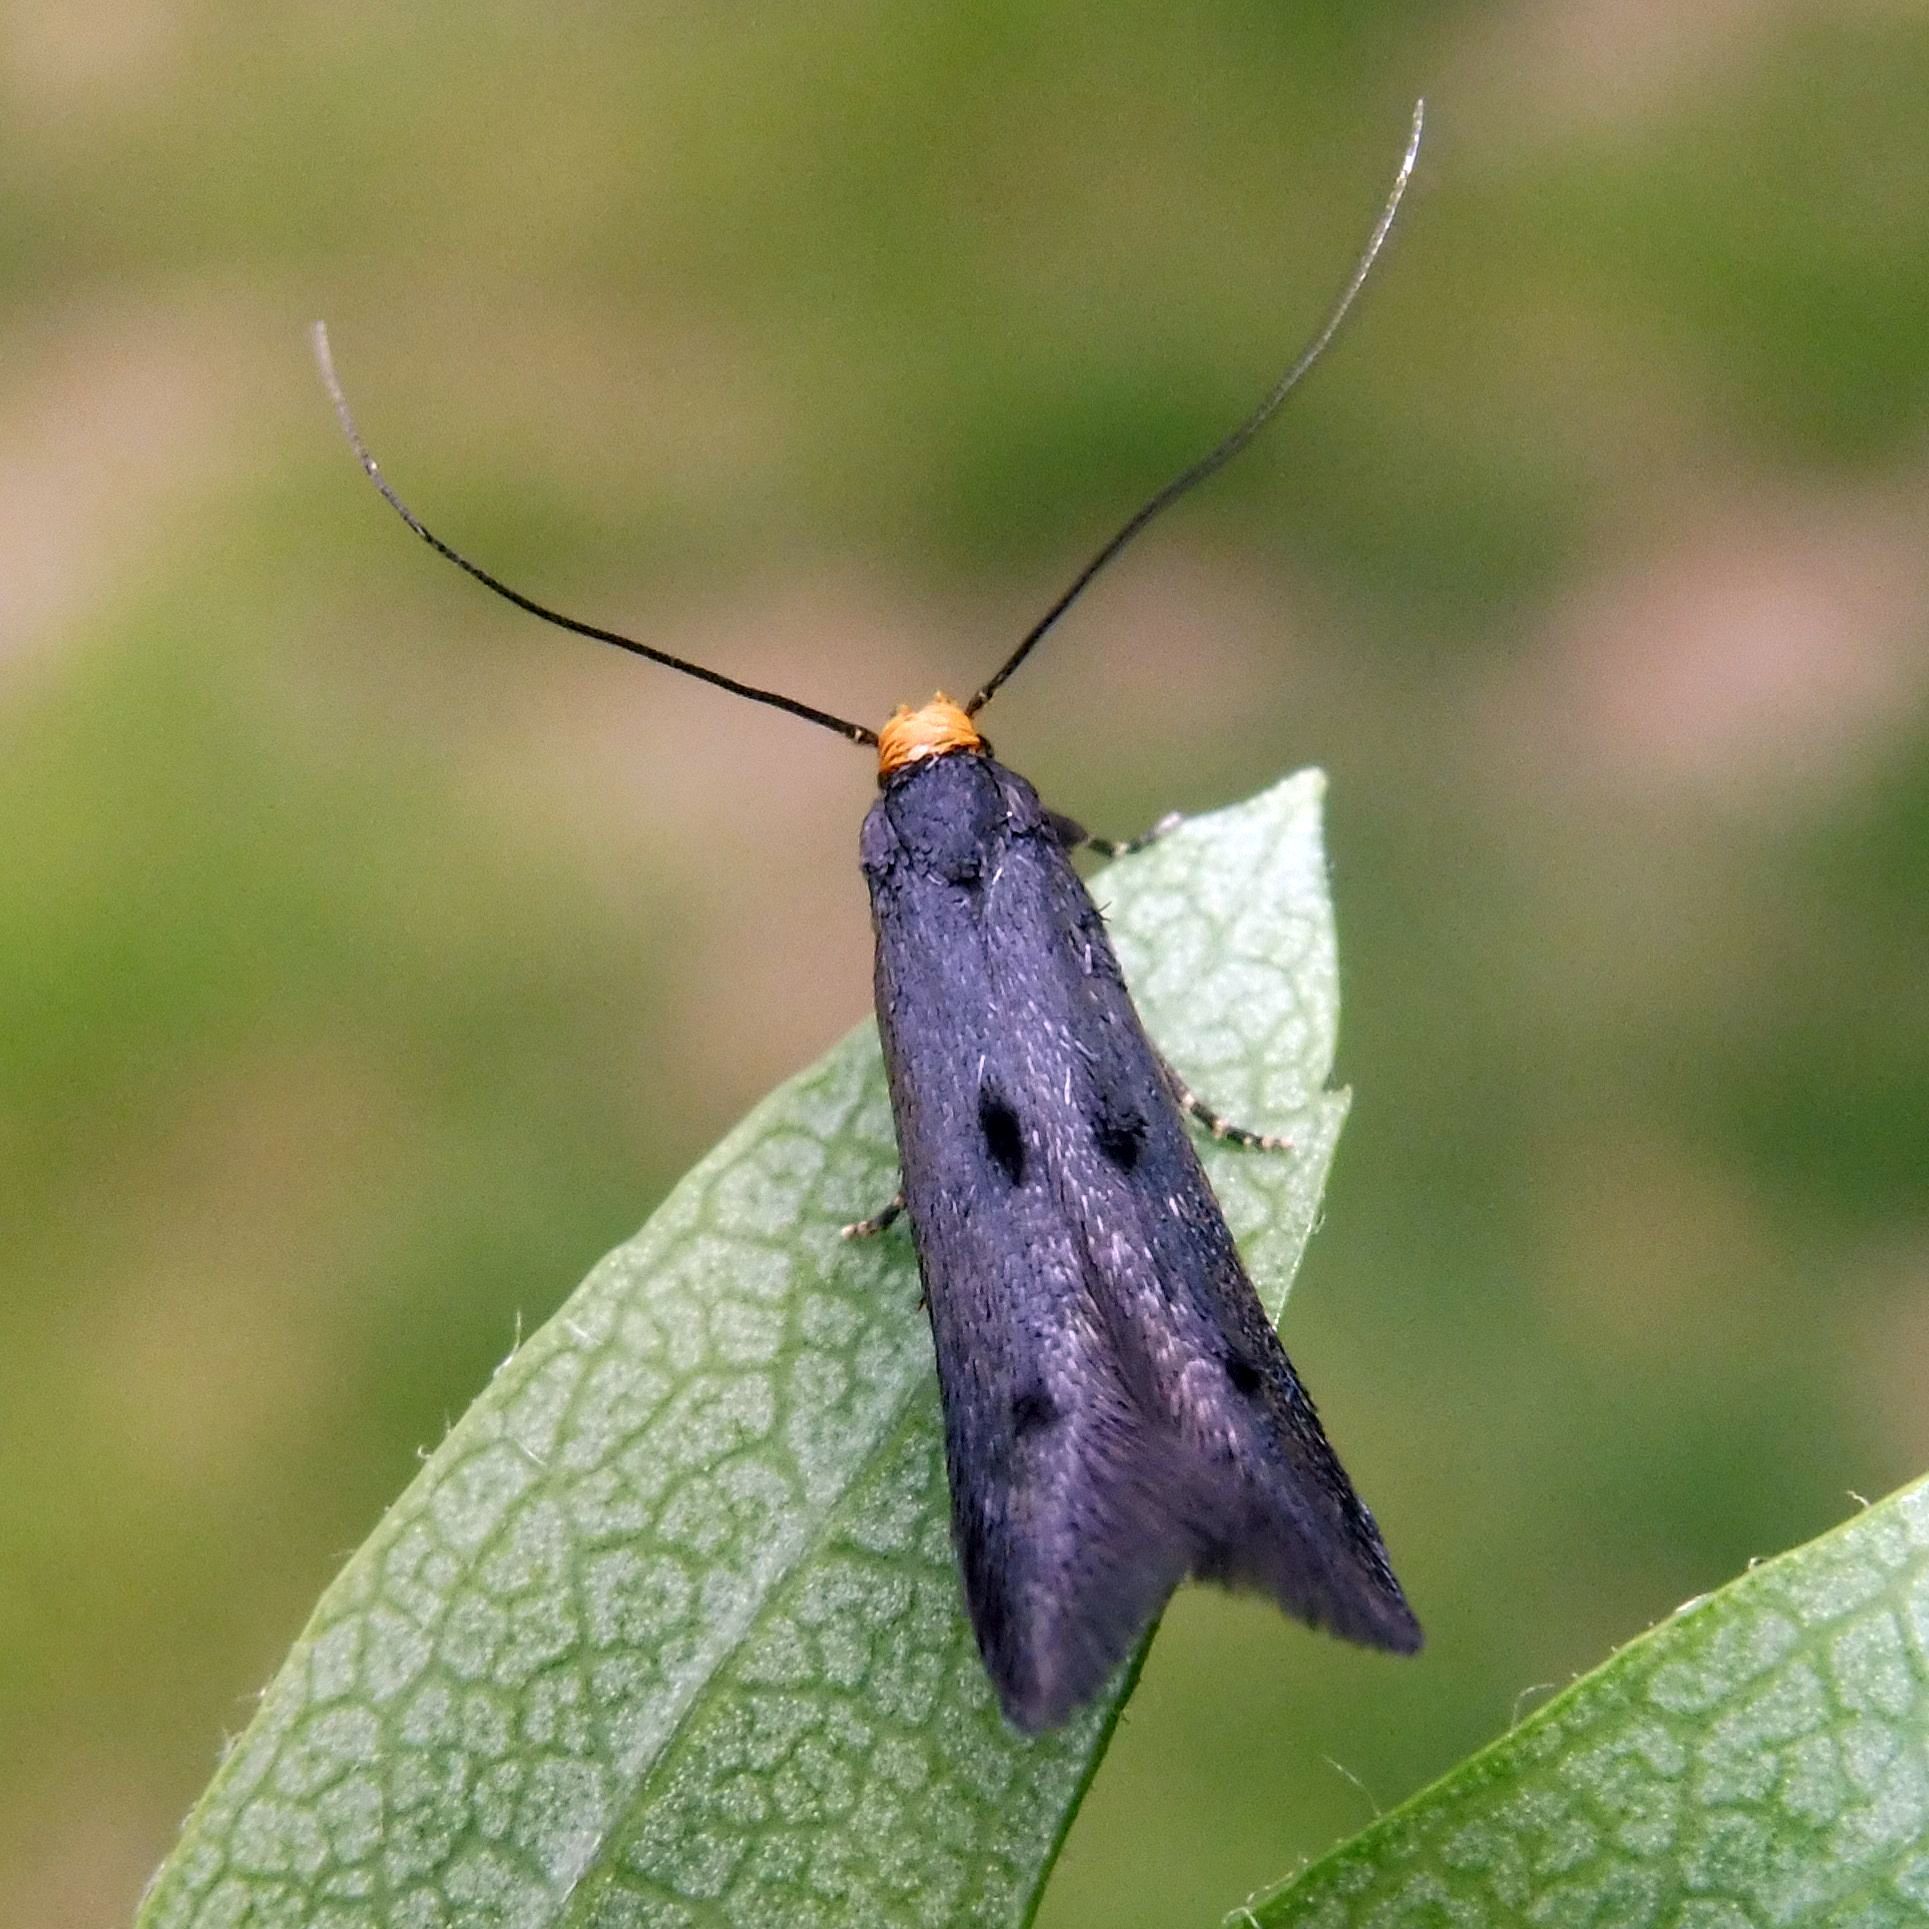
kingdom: Animalia
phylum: Arthropoda
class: Insecta
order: Lepidoptera
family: Elachistidae
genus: Chrysoclista
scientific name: Chrysoclista flavicaput
